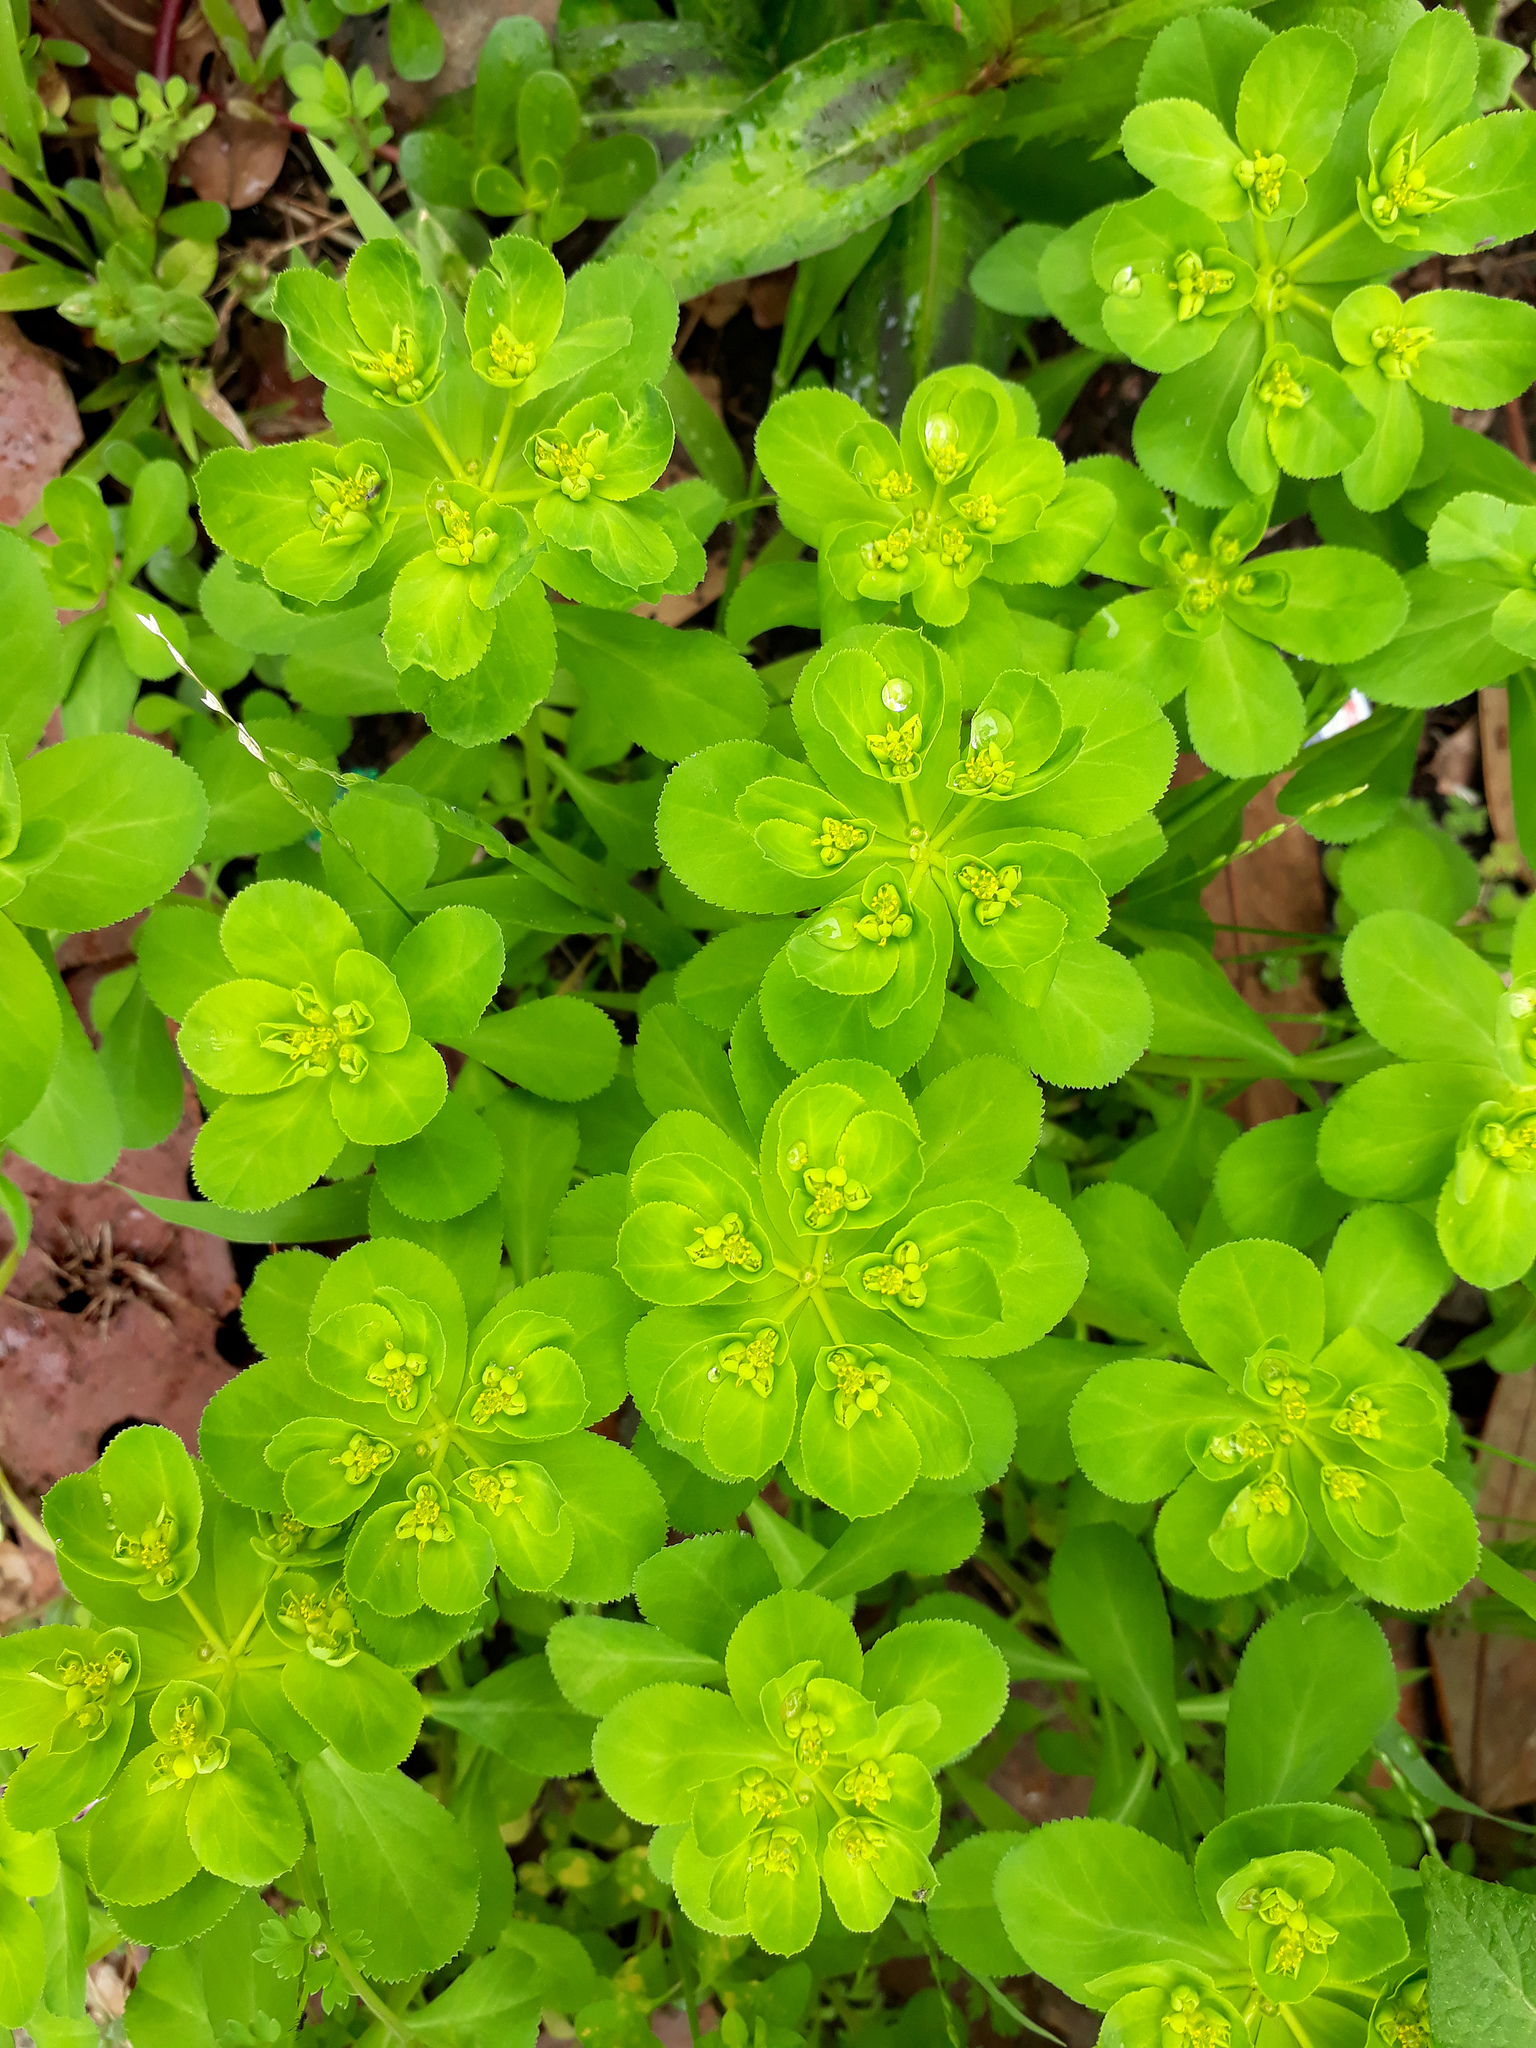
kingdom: Plantae
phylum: Tracheophyta
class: Magnoliopsida
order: Malpighiales
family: Euphorbiaceae
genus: Euphorbia
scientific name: Euphorbia helioscopia
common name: Sun spurge
